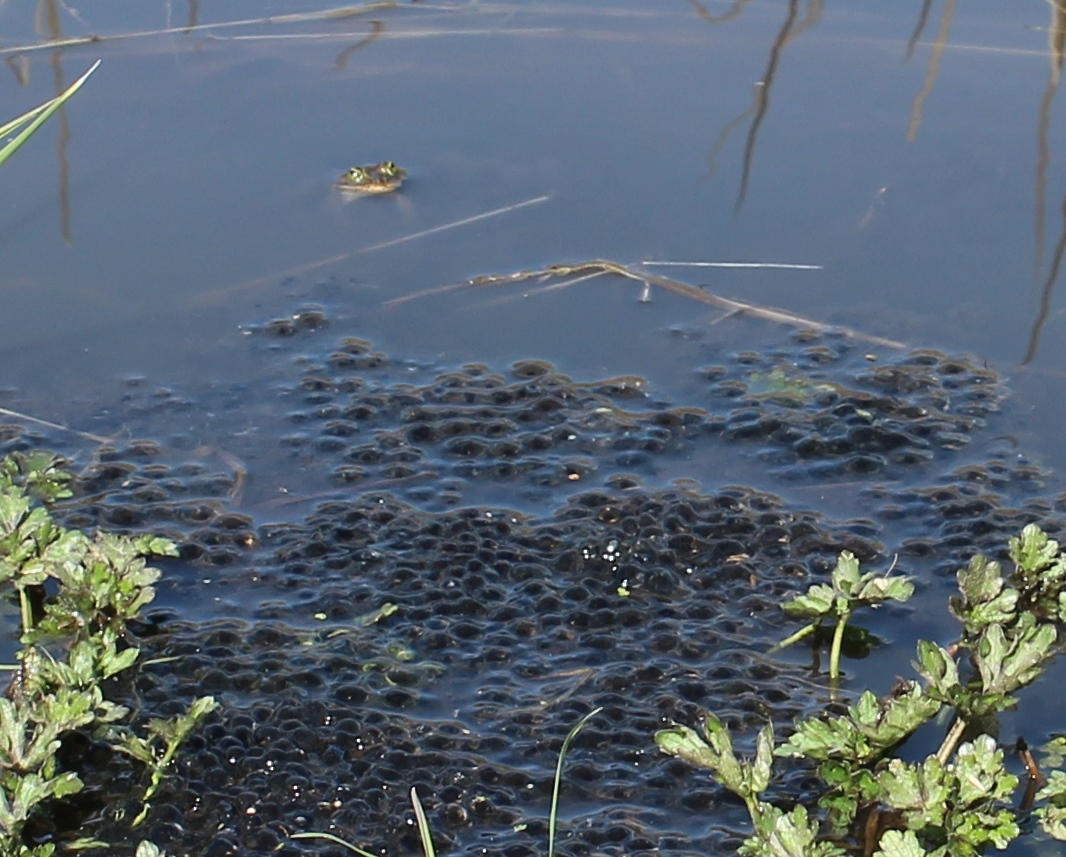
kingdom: Animalia
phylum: Chordata
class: Amphibia
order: Anura
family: Ranidae
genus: Rana
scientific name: Rana pretiosa
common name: Oregon spotted frog
